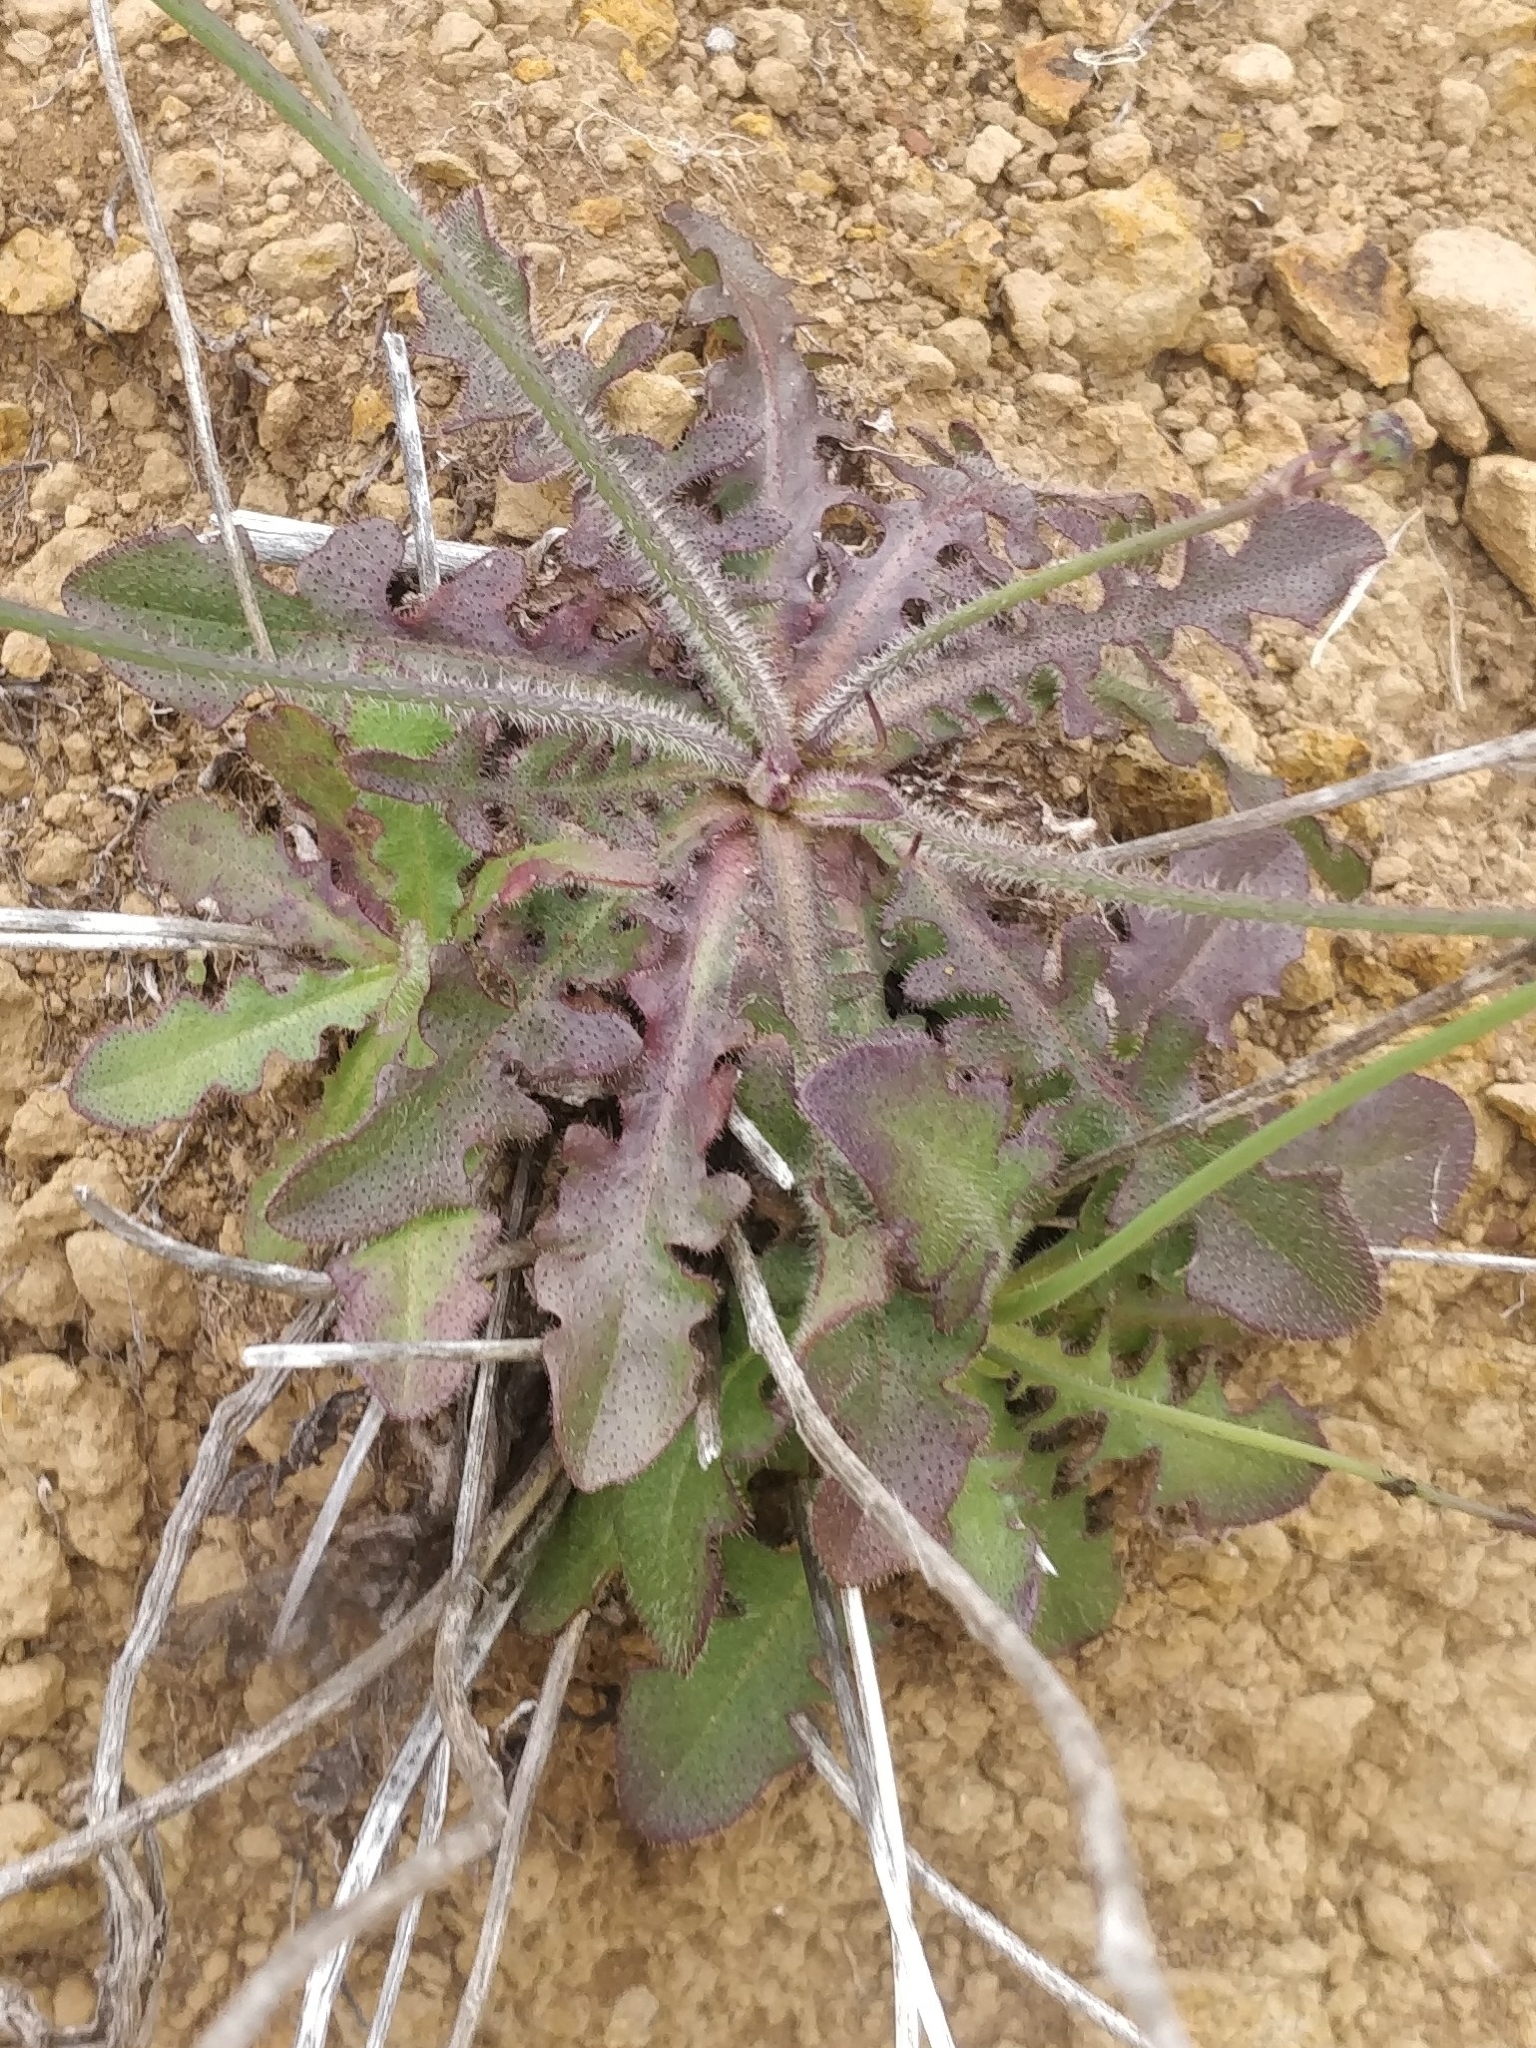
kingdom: Plantae
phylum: Tracheophyta
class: Magnoliopsida
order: Asterales
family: Asteraceae
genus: Hypochaeris
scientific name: Hypochaeris radicata
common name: Flatweed
